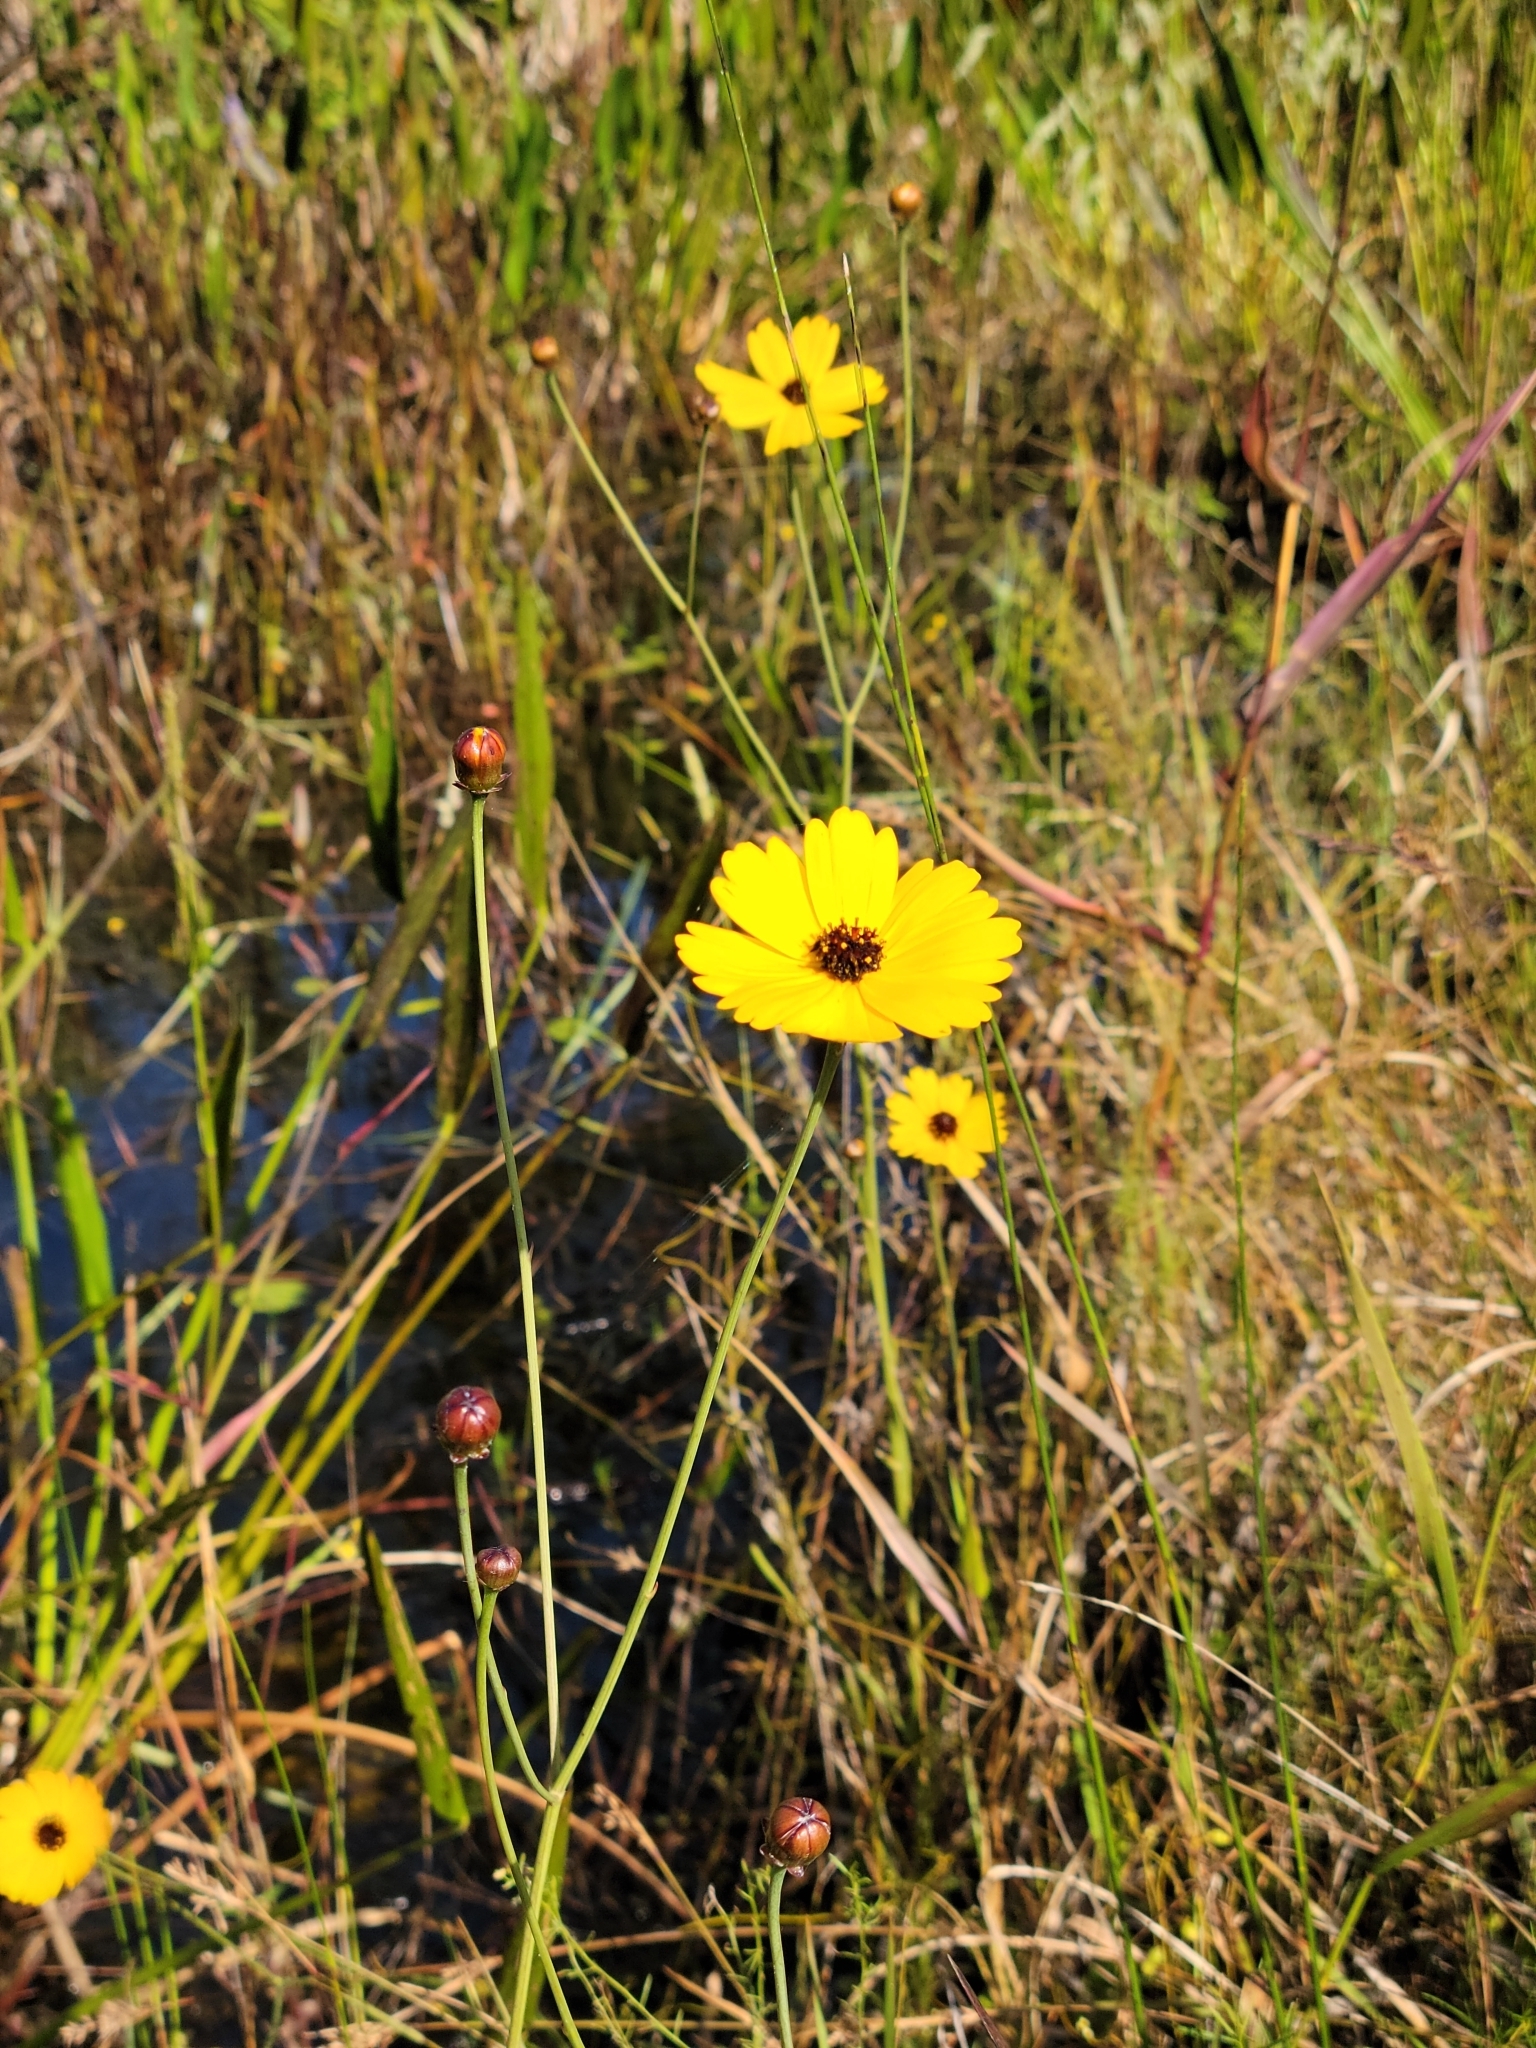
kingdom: Plantae
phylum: Tracheophyta
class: Magnoliopsida
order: Asterales
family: Asteraceae
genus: Coreopsis
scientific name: Coreopsis gladiata
